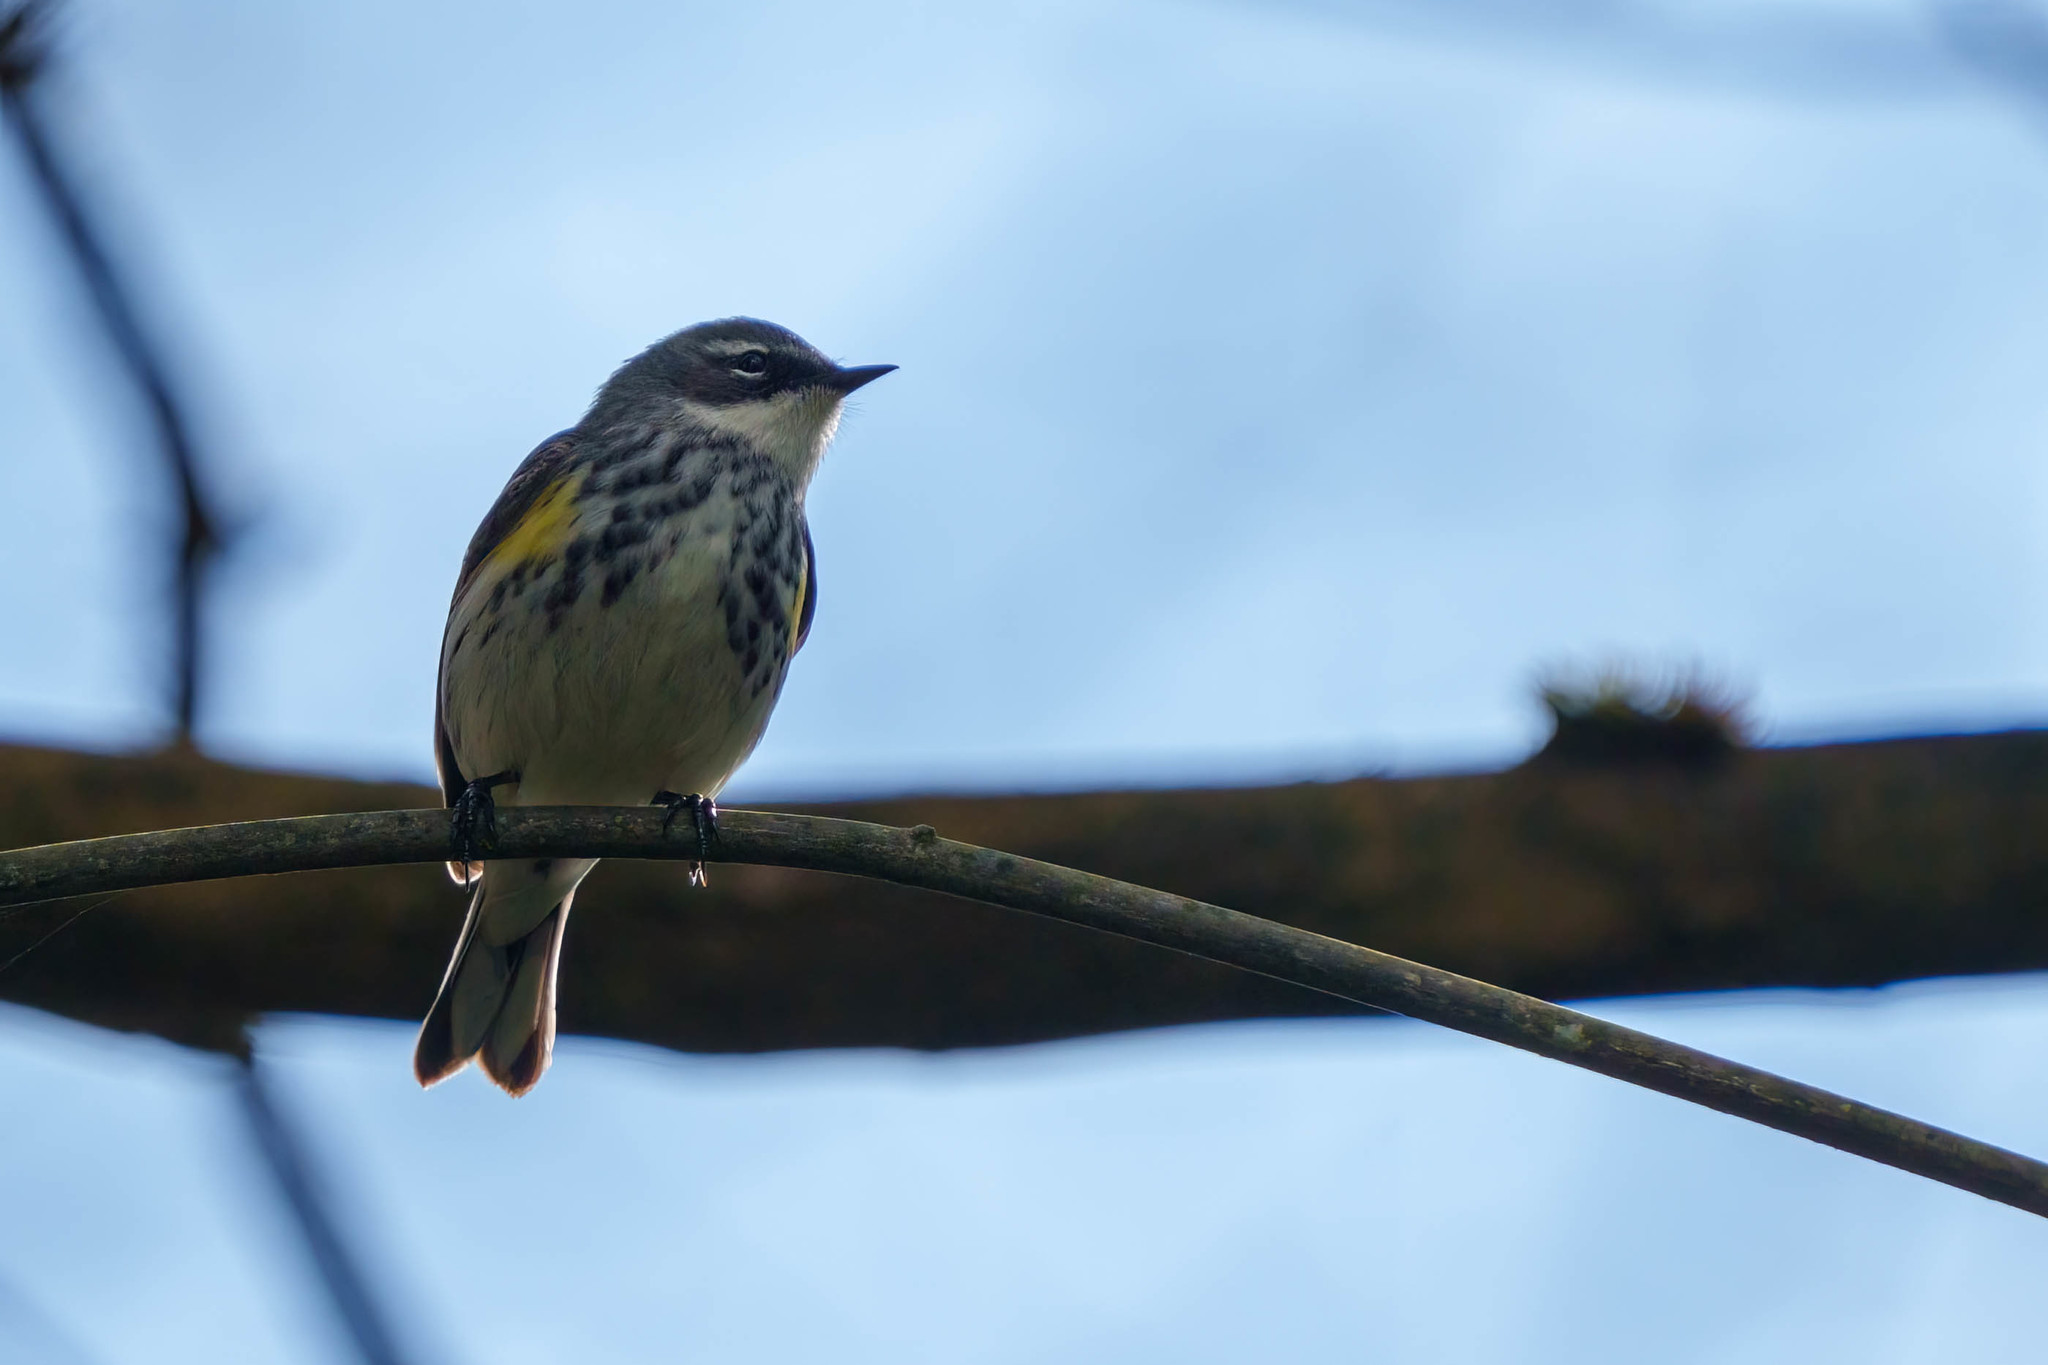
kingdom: Animalia
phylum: Chordata
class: Aves
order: Passeriformes
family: Parulidae
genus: Setophaga
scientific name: Setophaga coronata
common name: Myrtle warbler
